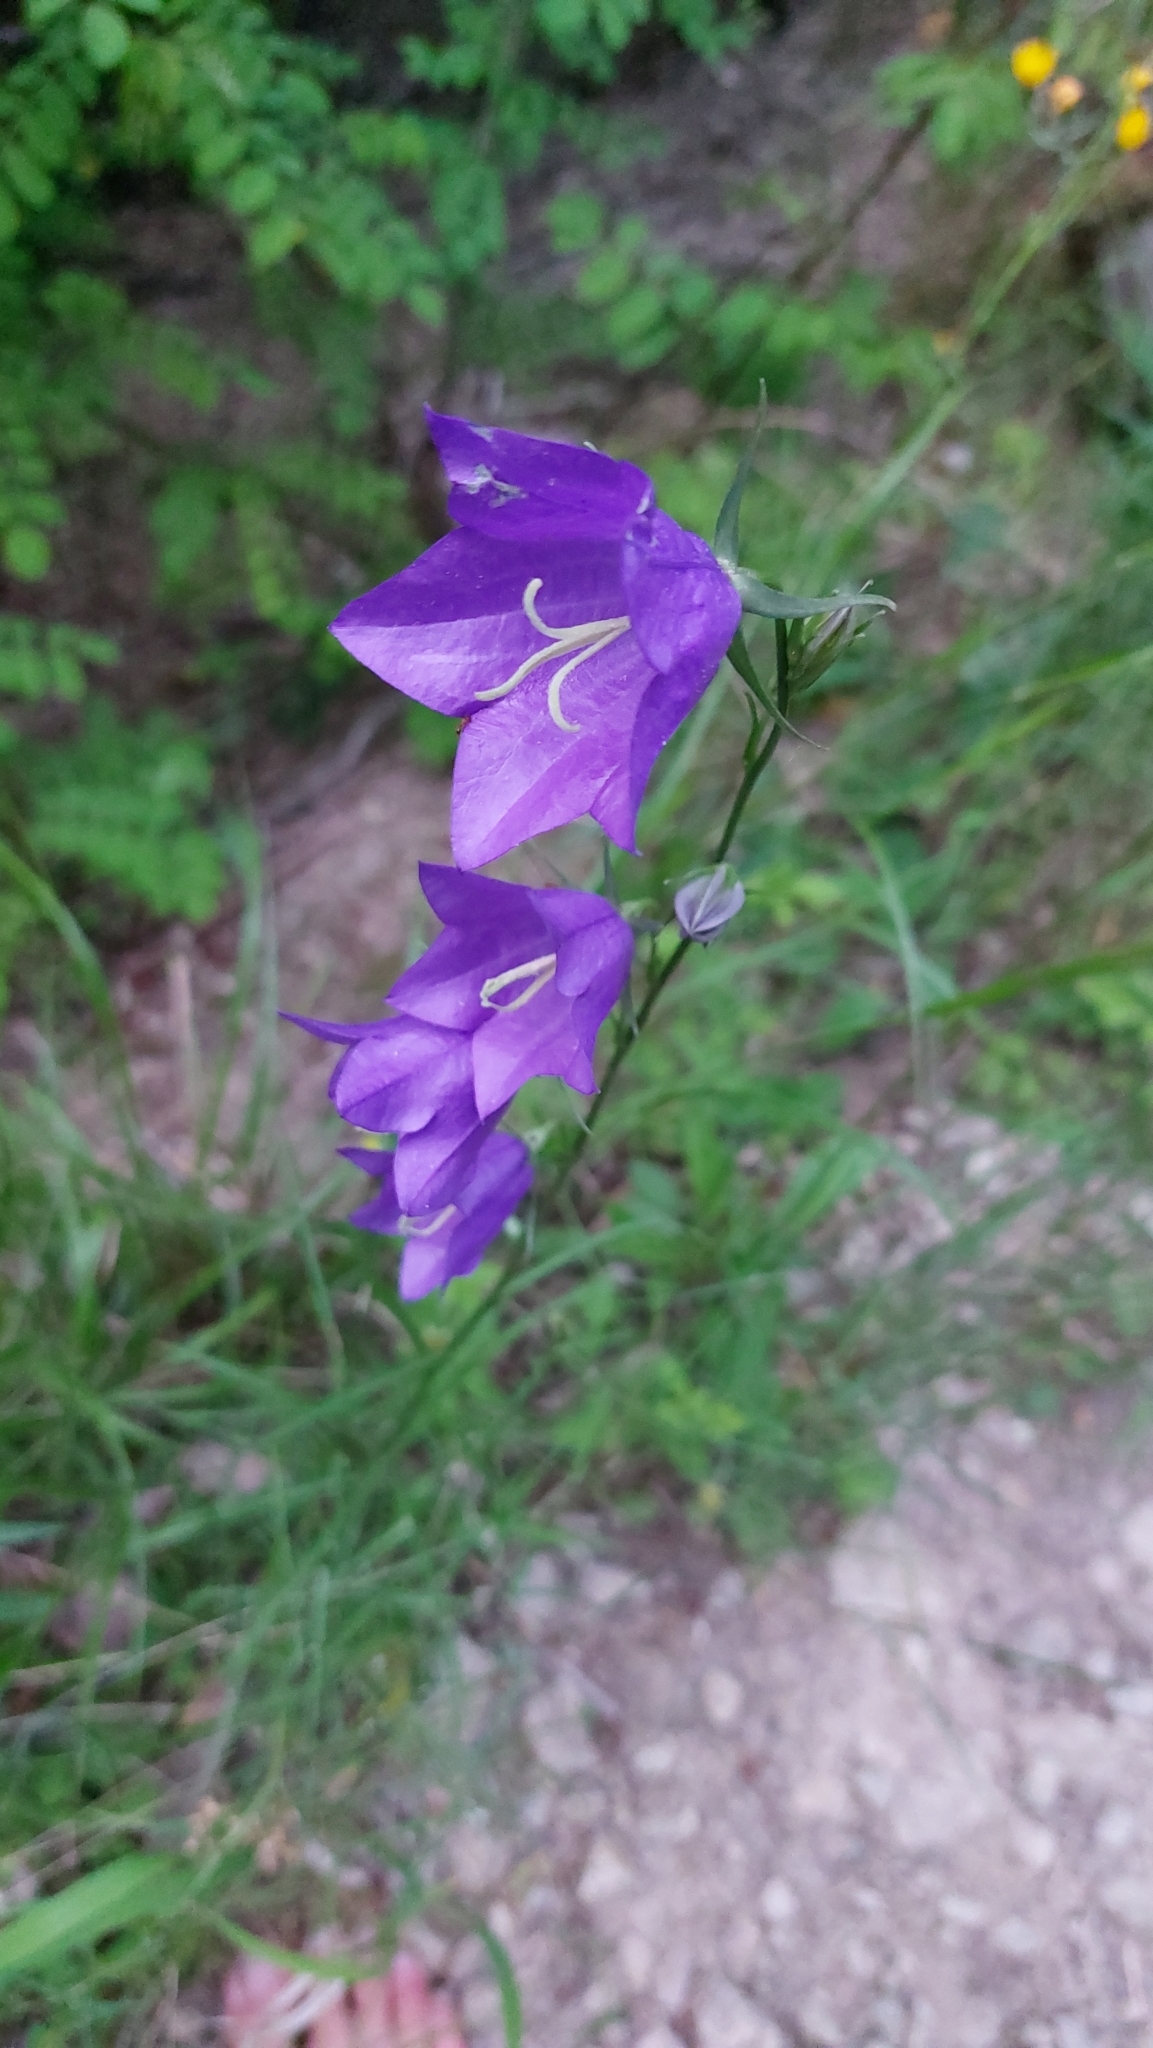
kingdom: Plantae
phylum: Tracheophyta
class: Magnoliopsida
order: Asterales
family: Campanulaceae
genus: Campanula
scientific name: Campanula persicifolia
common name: Peach-leaved bellflower
